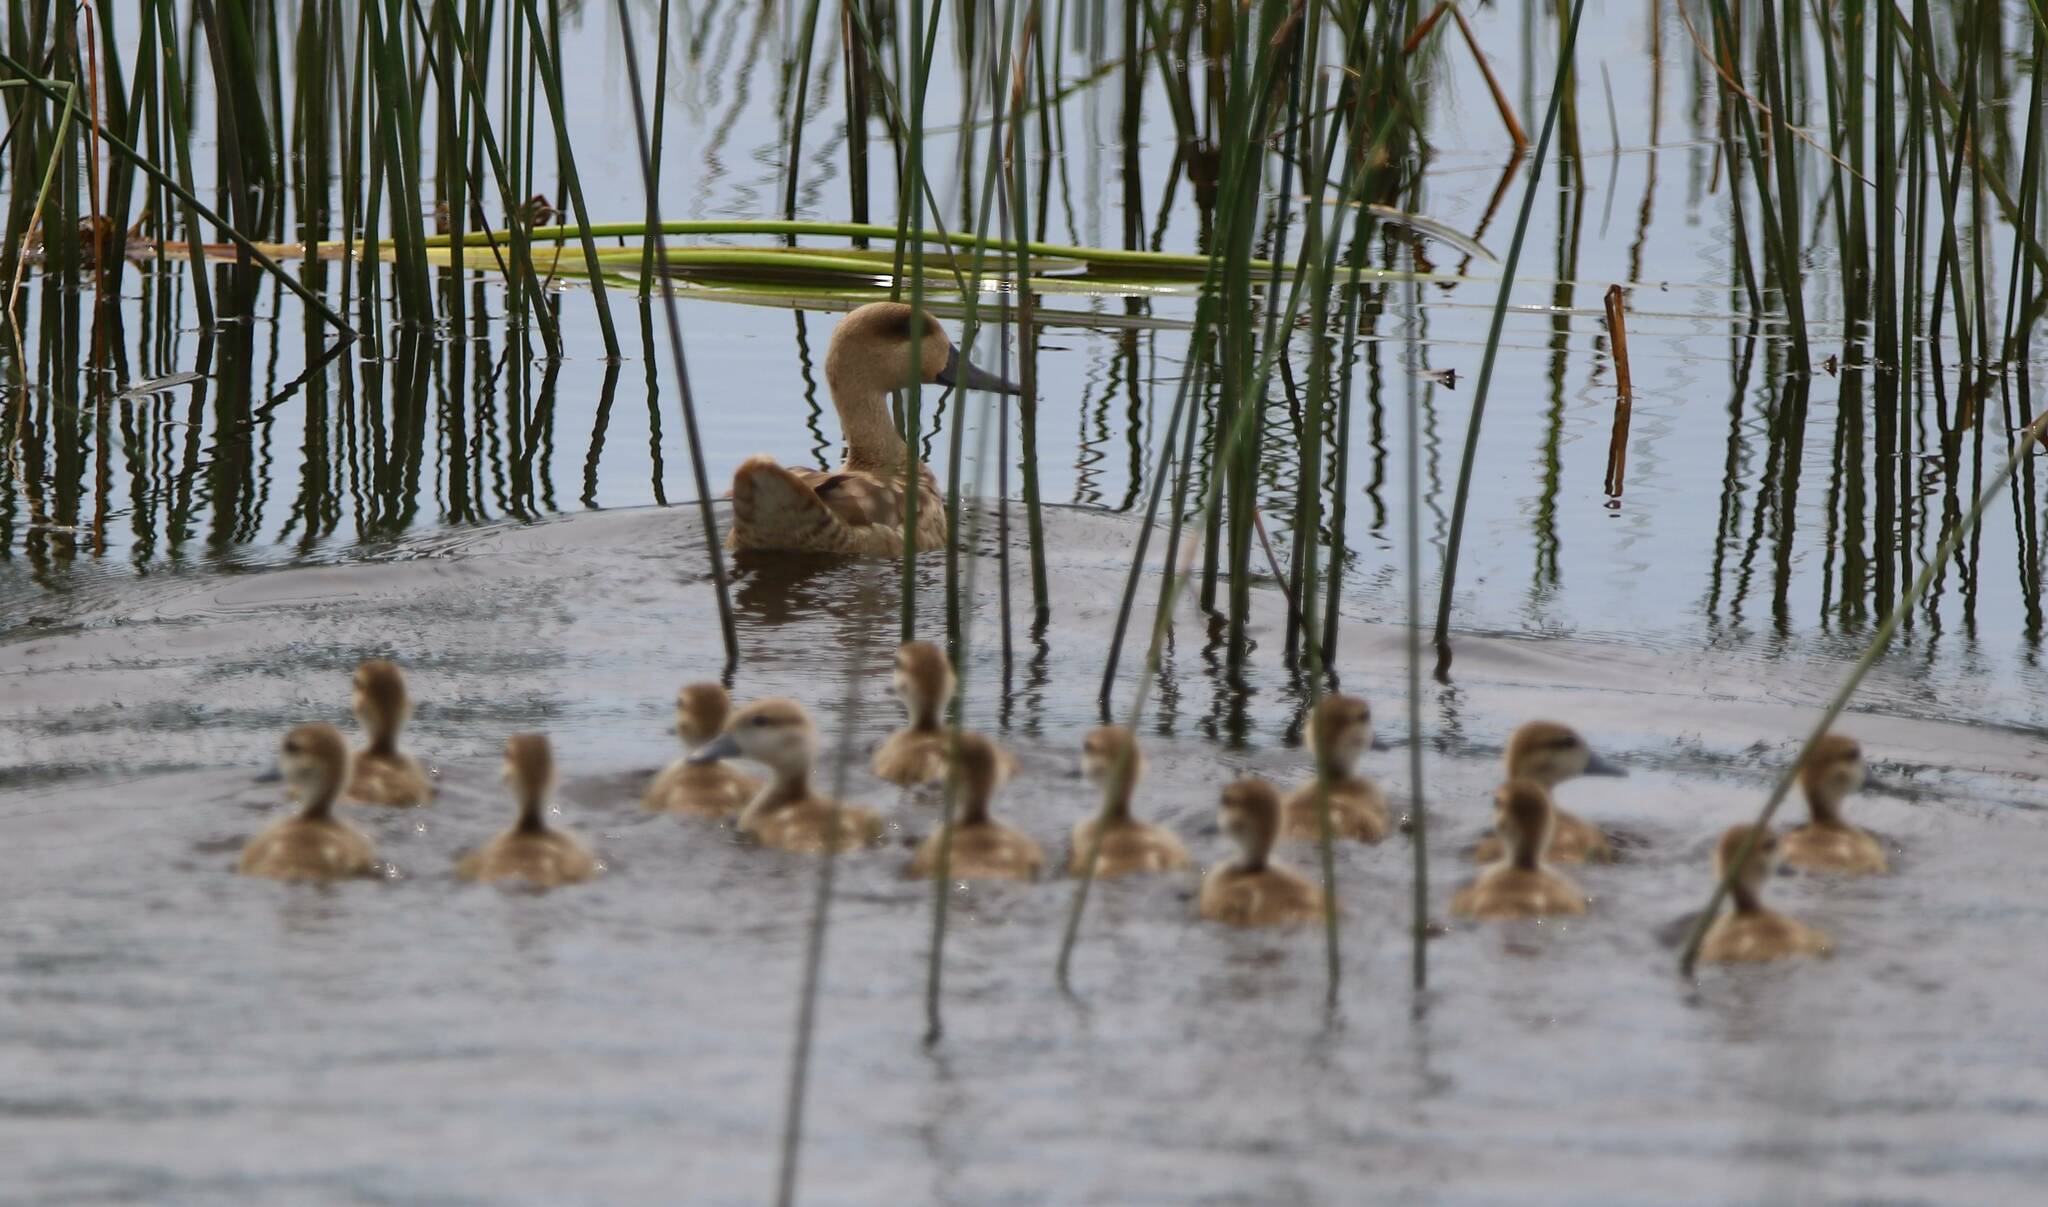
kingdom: Animalia
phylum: Chordata
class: Aves
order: Anseriformes
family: Anatidae
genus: Marmaronetta
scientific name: Marmaronetta angustirostris
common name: Marbled duck
